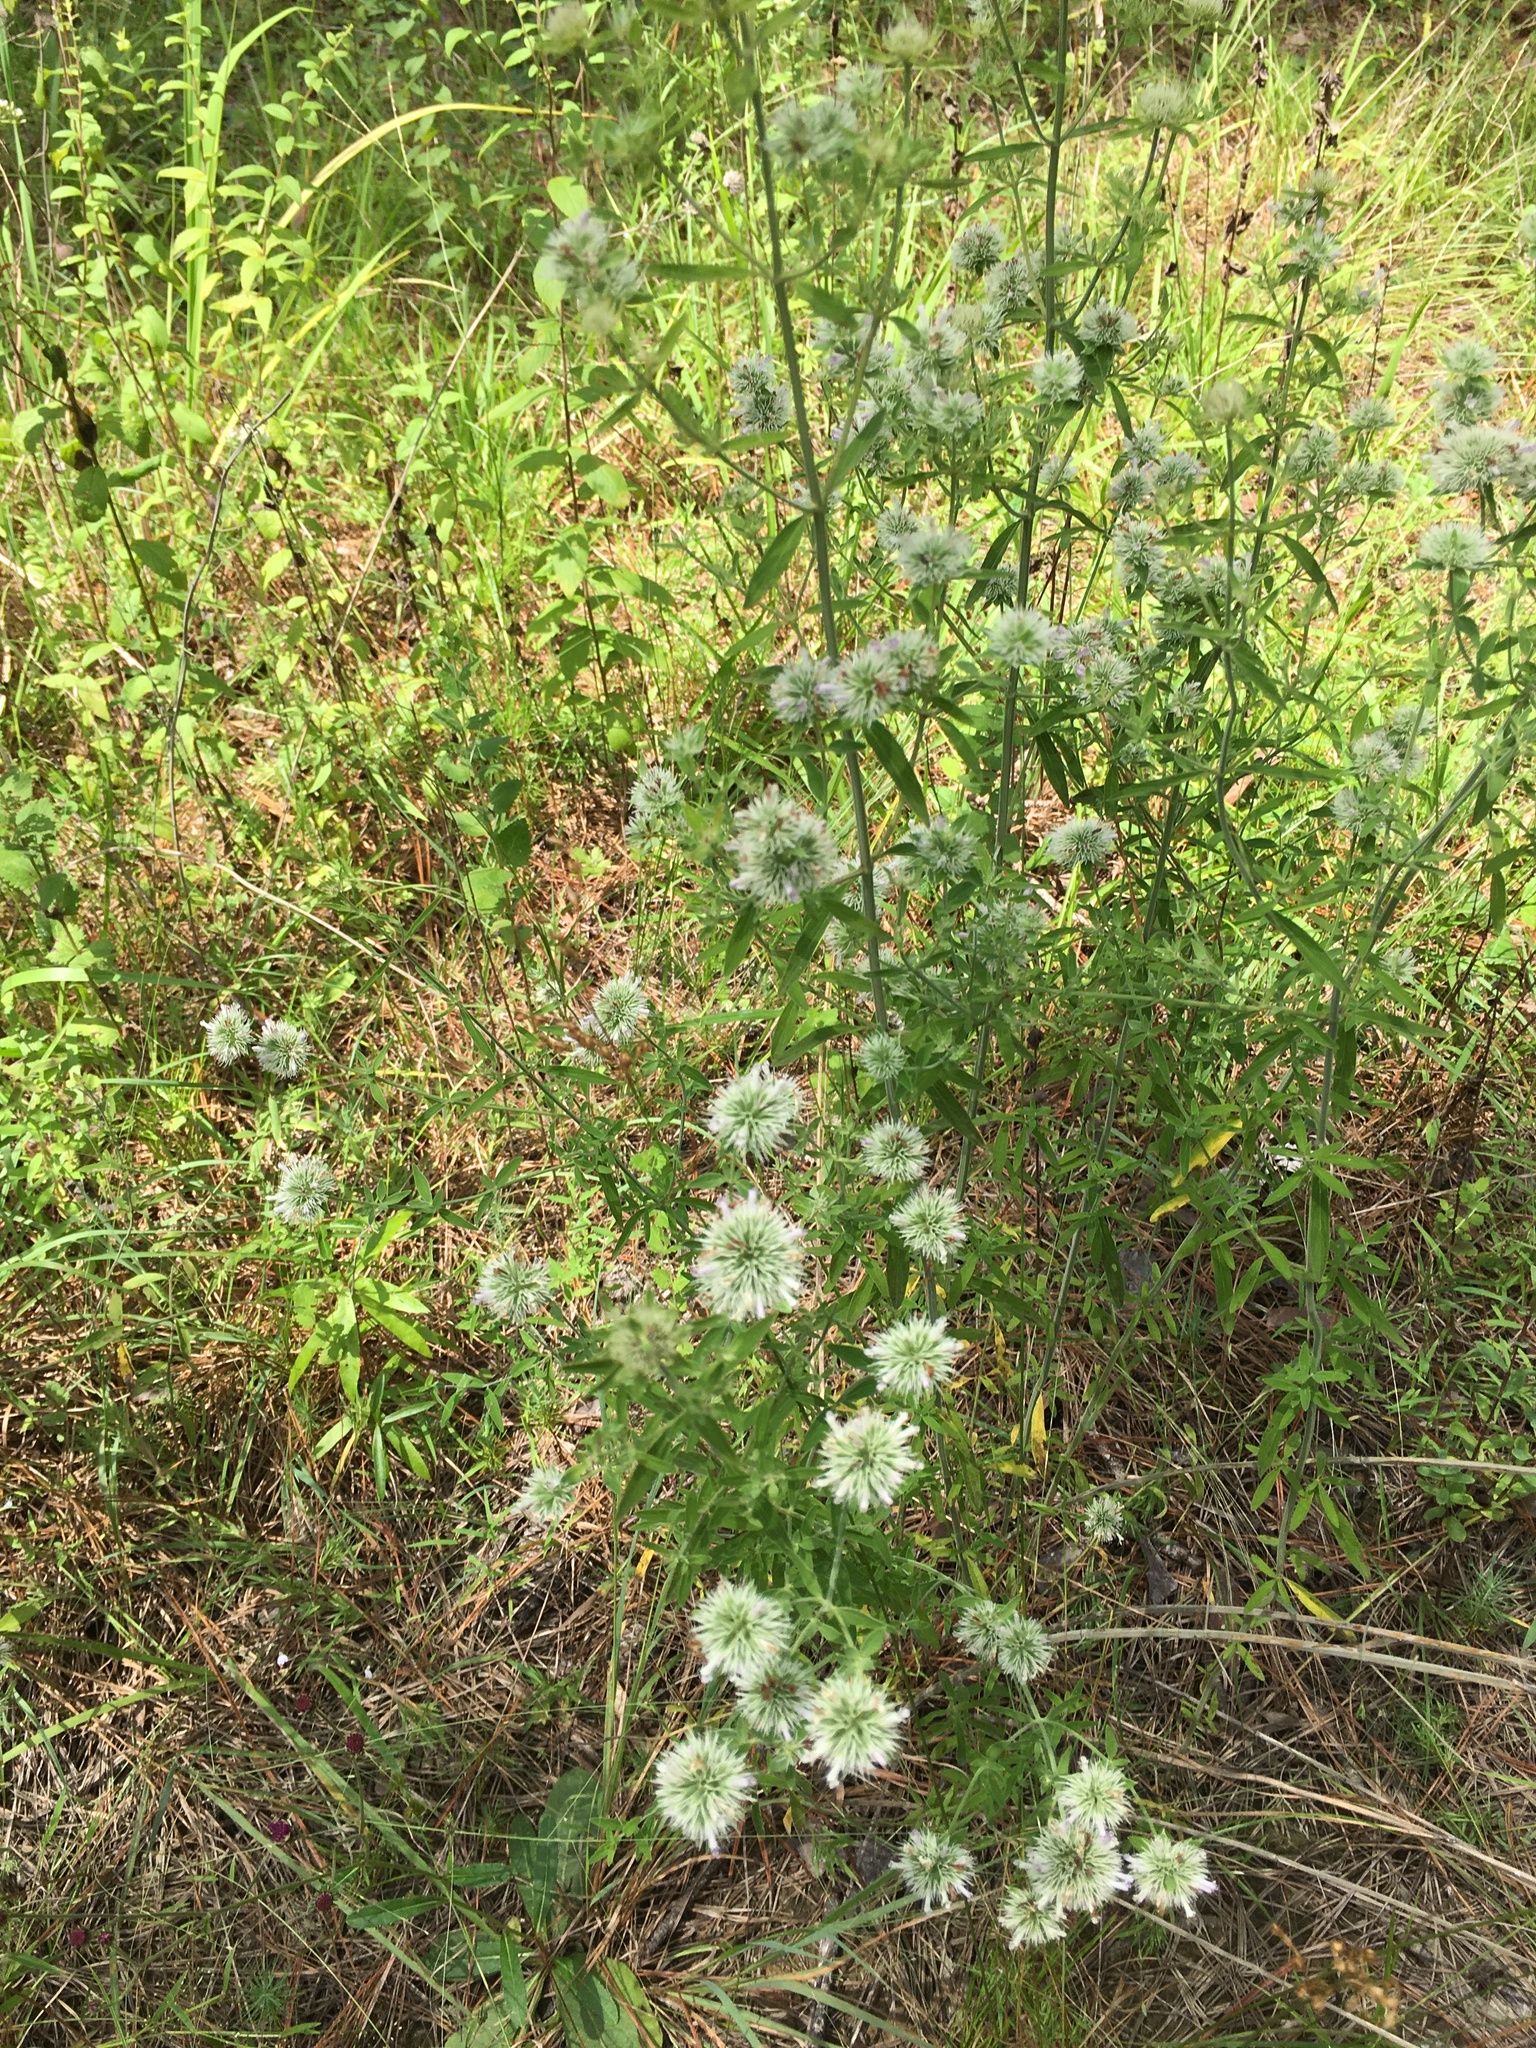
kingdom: Plantae
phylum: Tracheophyta
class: Magnoliopsida
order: Lamiales
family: Lamiaceae
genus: Pycnanthemum
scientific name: Pycnanthemum flexuosum
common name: Appalachian mountain-mint
